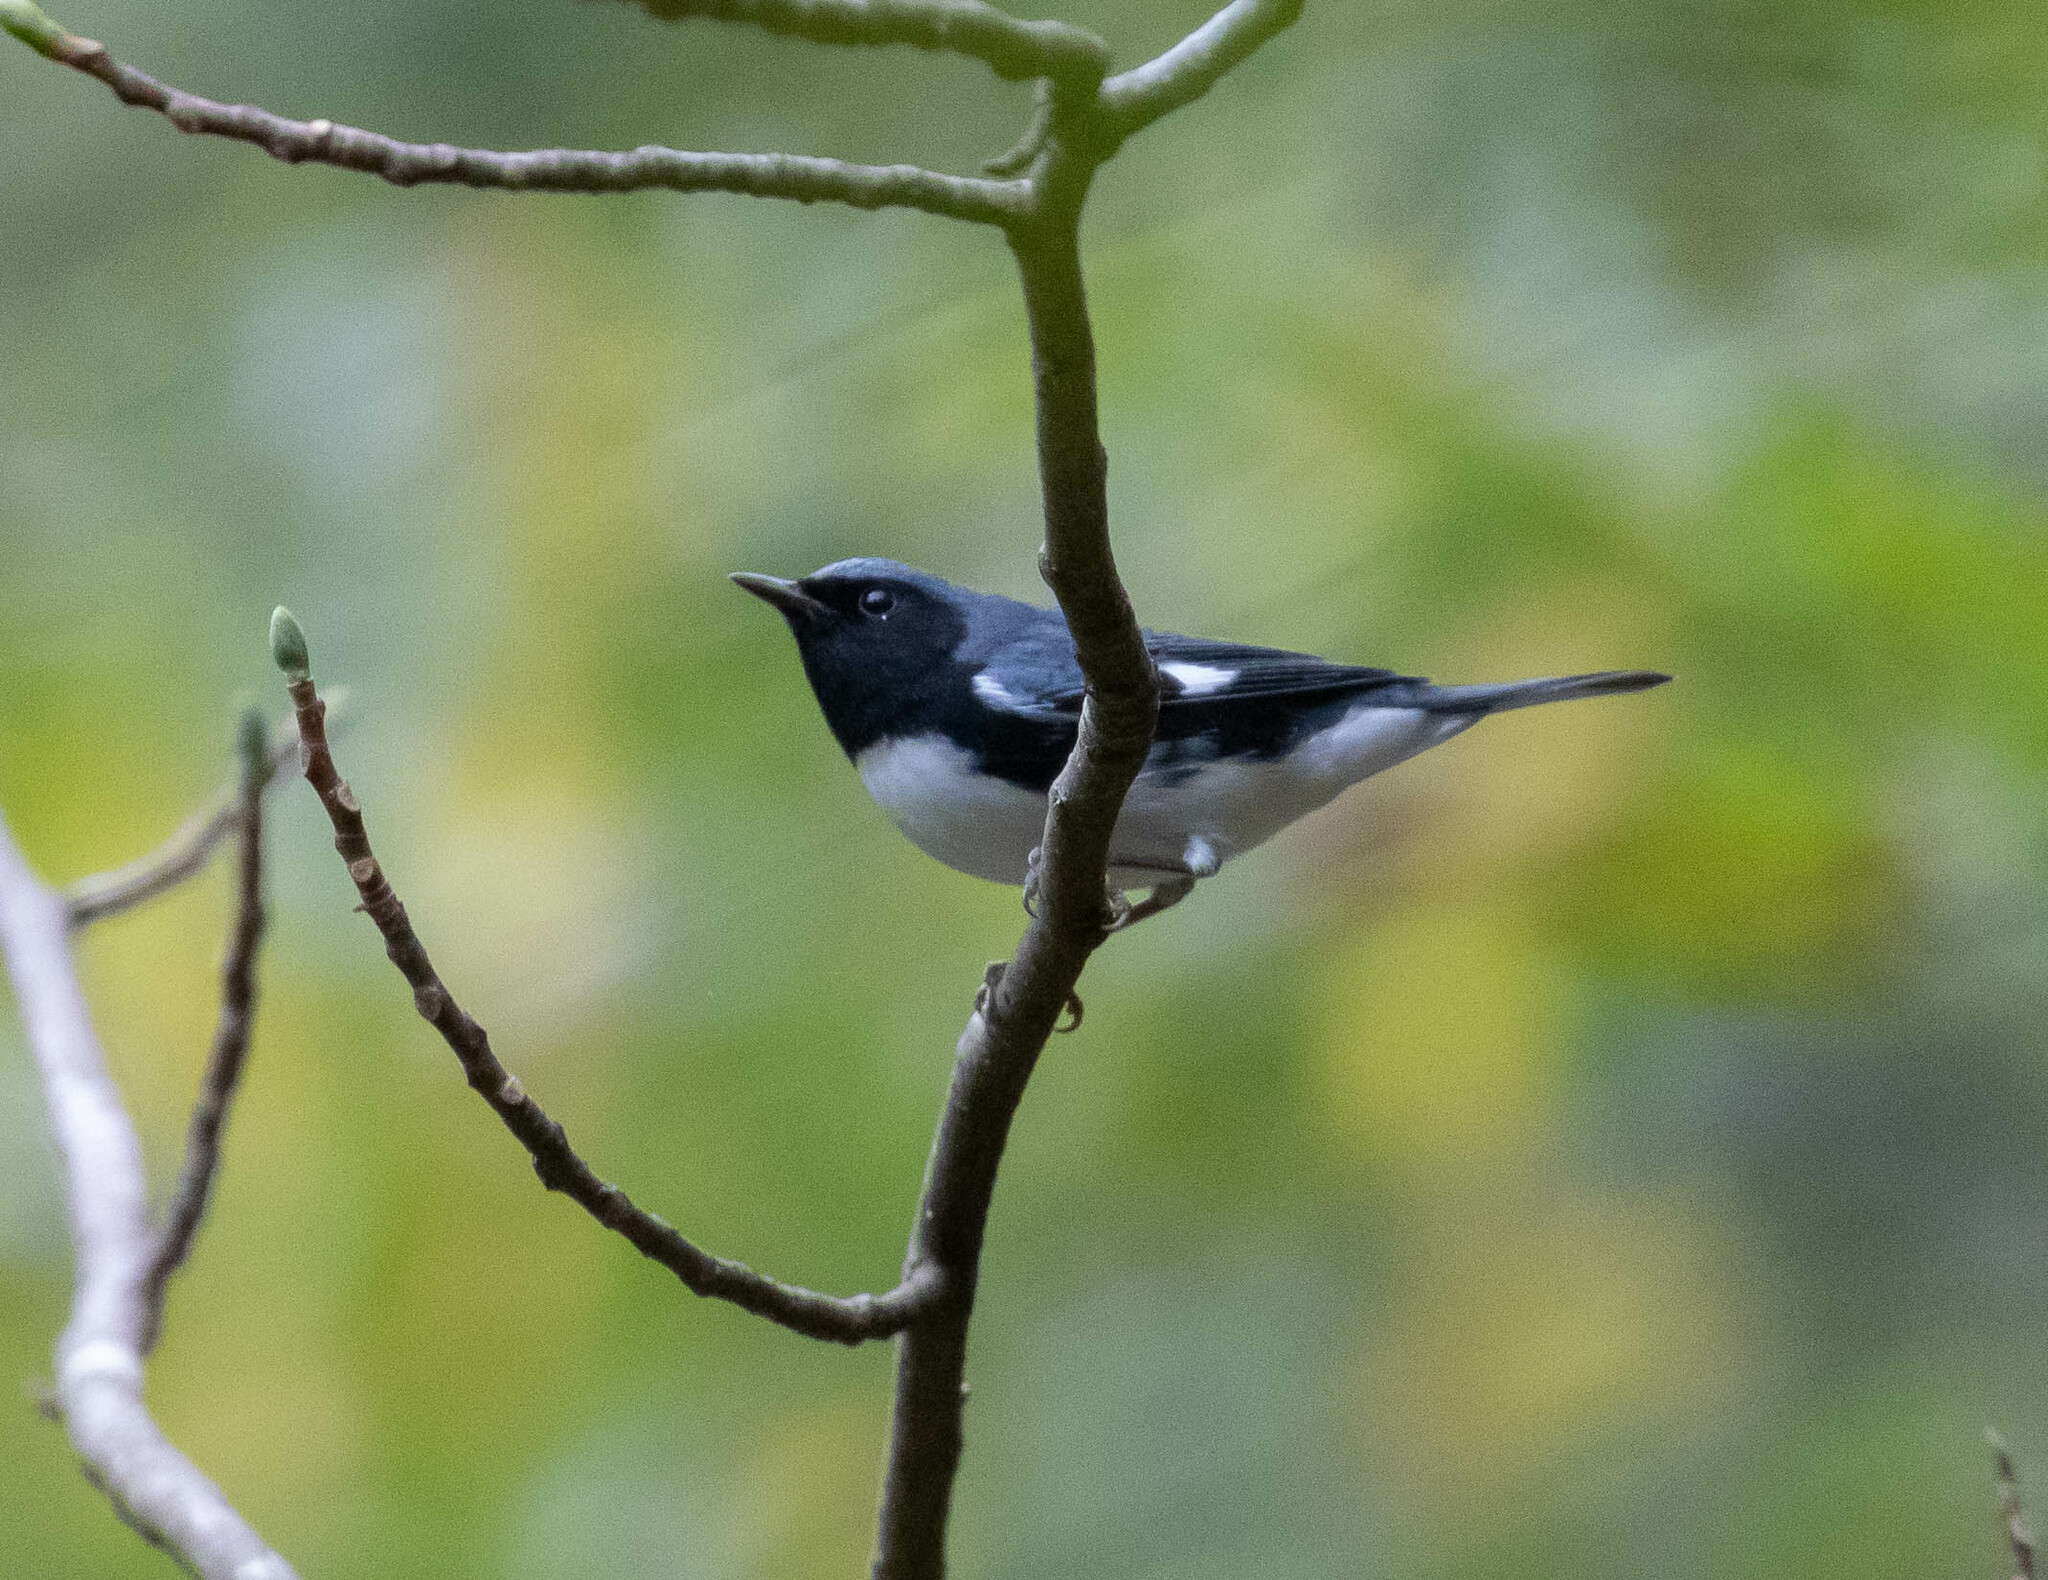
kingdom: Animalia
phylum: Chordata
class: Aves
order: Passeriformes
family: Parulidae
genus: Setophaga
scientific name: Setophaga caerulescens
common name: Black-throated blue warbler
